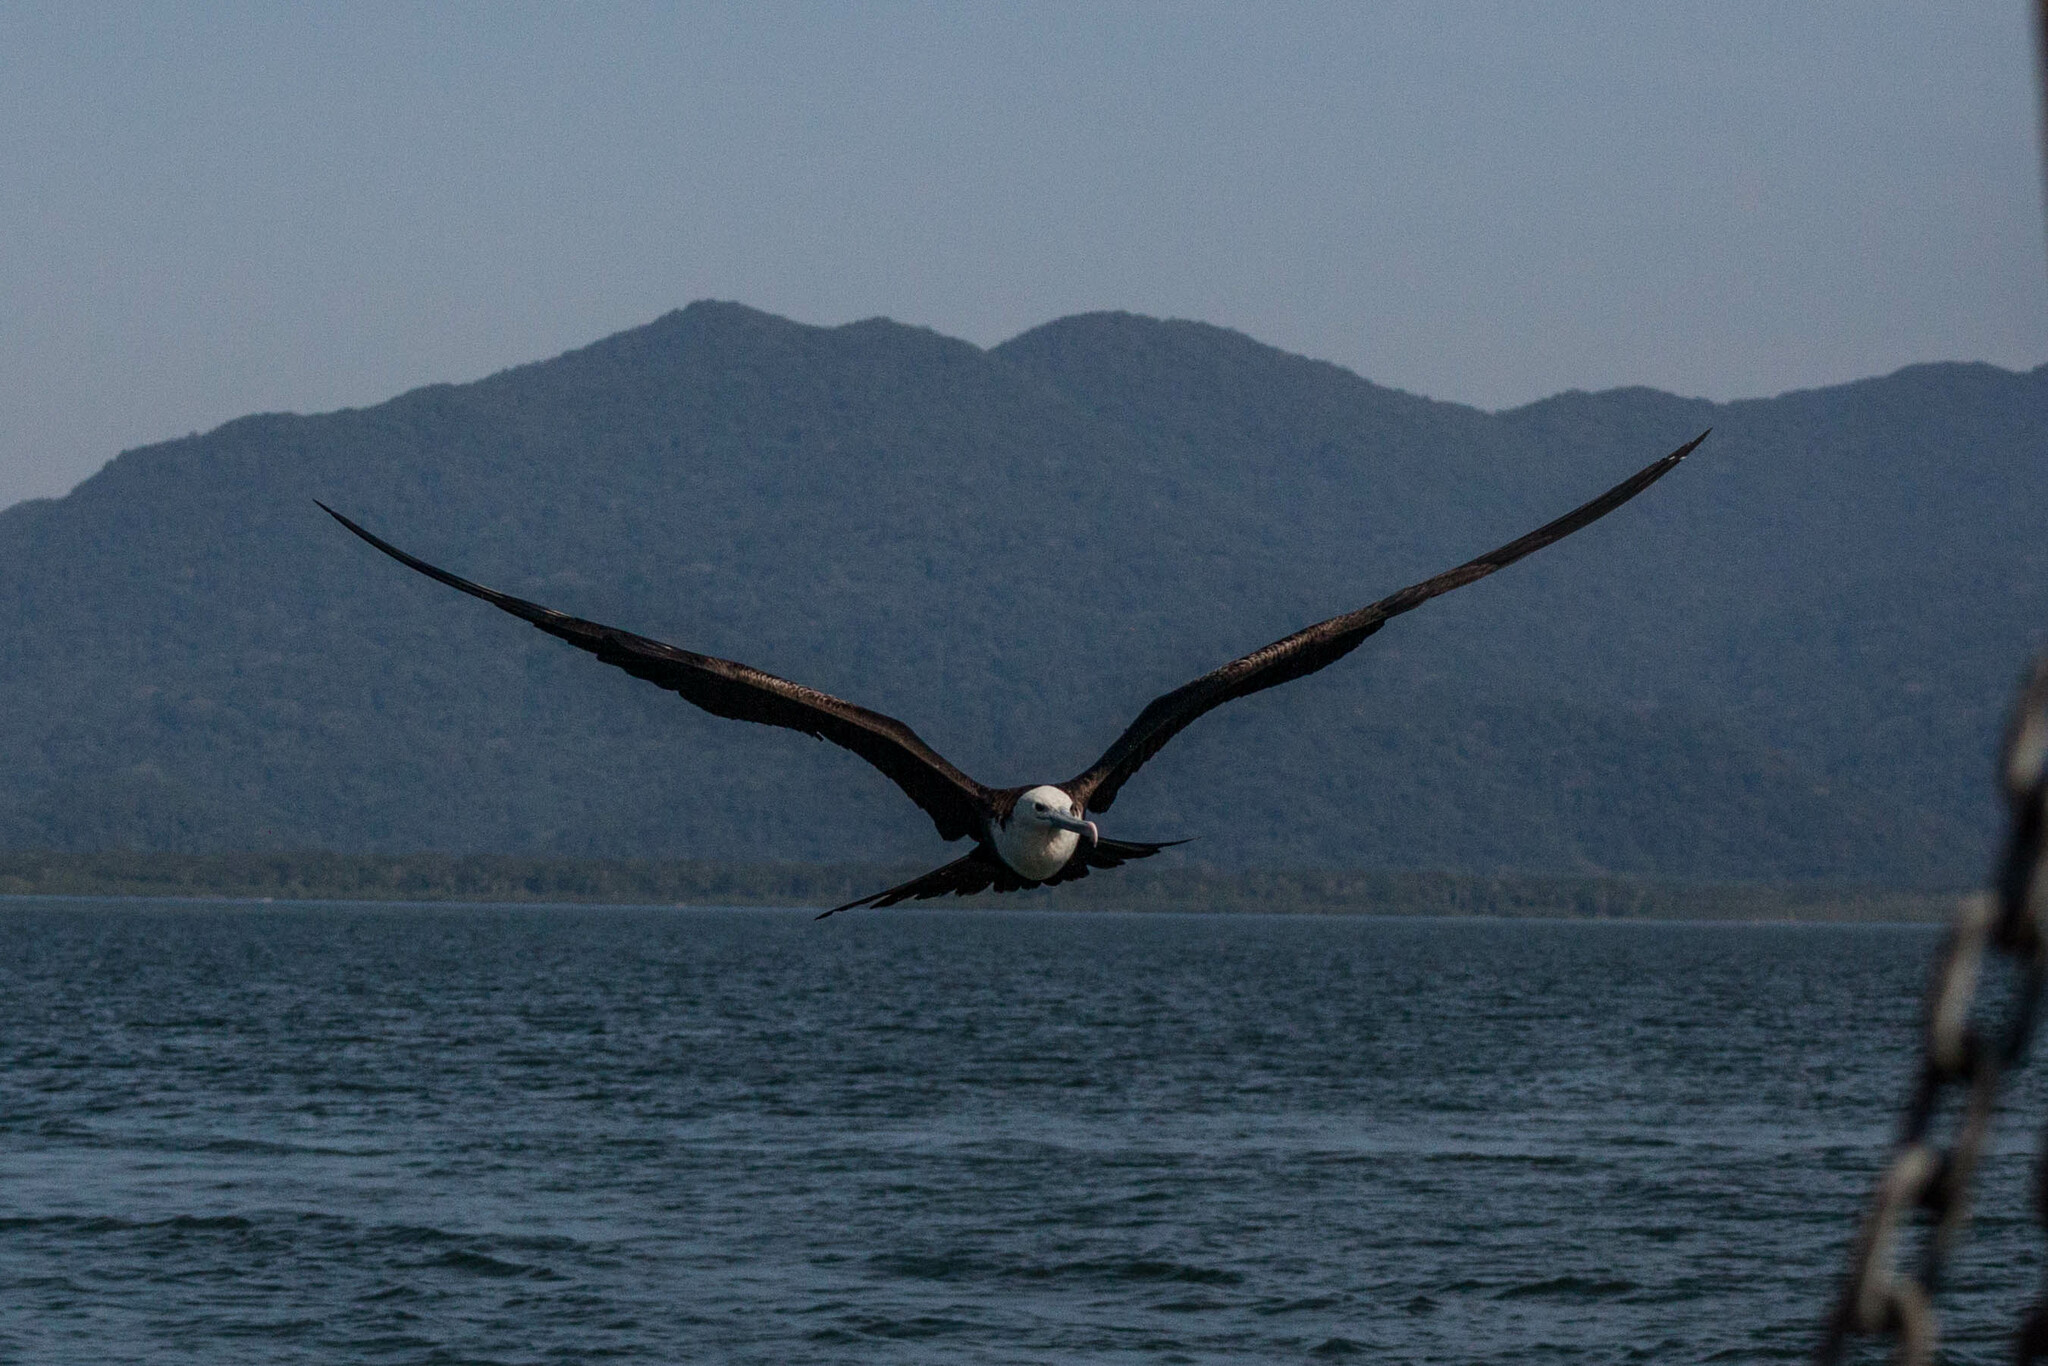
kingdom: Animalia
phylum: Chordata
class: Aves
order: Suliformes
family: Fregatidae
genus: Fregata
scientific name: Fregata magnificens
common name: Magnificent frigatebird
